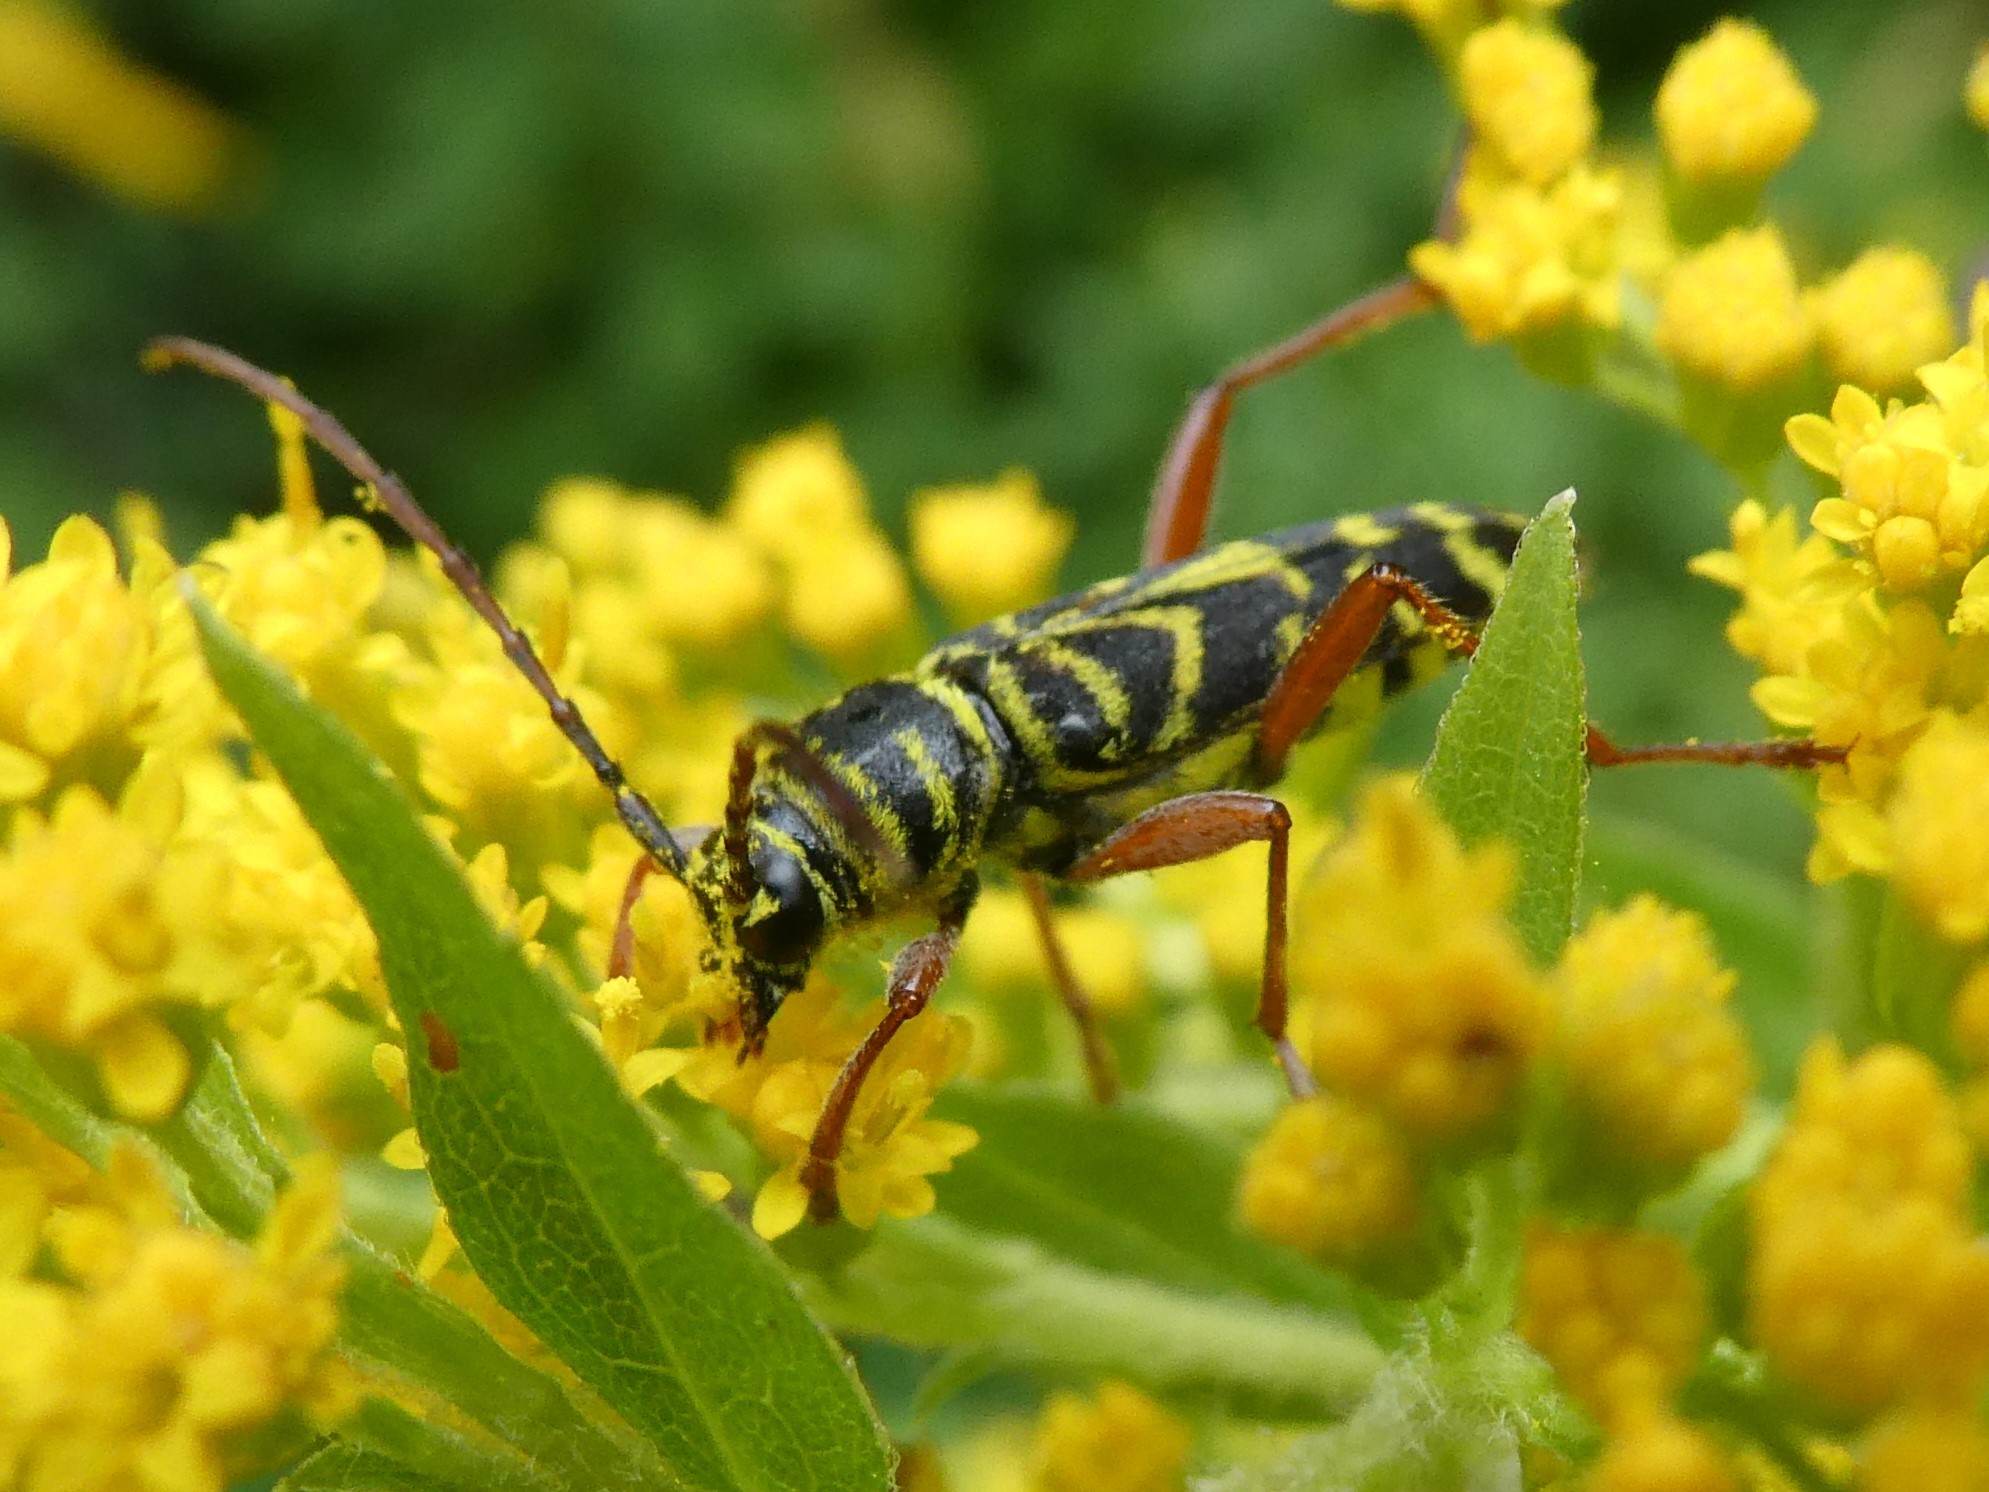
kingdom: Animalia
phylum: Arthropoda
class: Insecta
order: Coleoptera
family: Cerambycidae
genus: Megacyllene
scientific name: Megacyllene robiniae
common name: Locust borer
